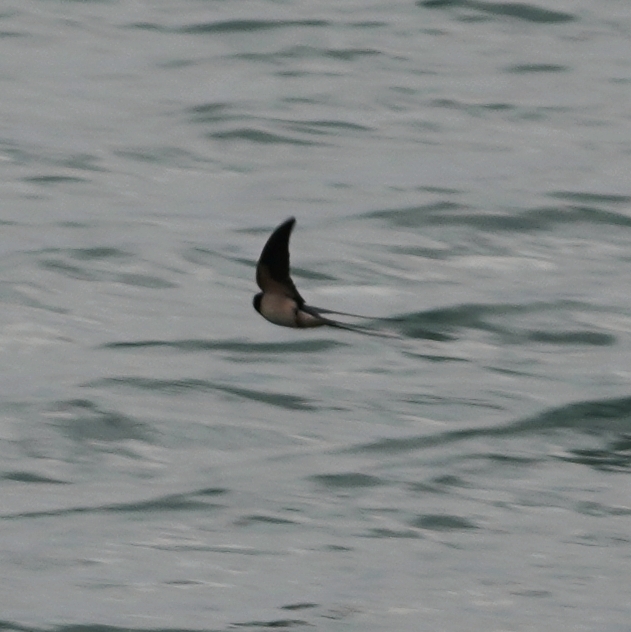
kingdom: Animalia
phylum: Chordata
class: Aves
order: Passeriformes
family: Hirundinidae
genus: Hirundo
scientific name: Hirundo rustica
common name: Barn swallow
